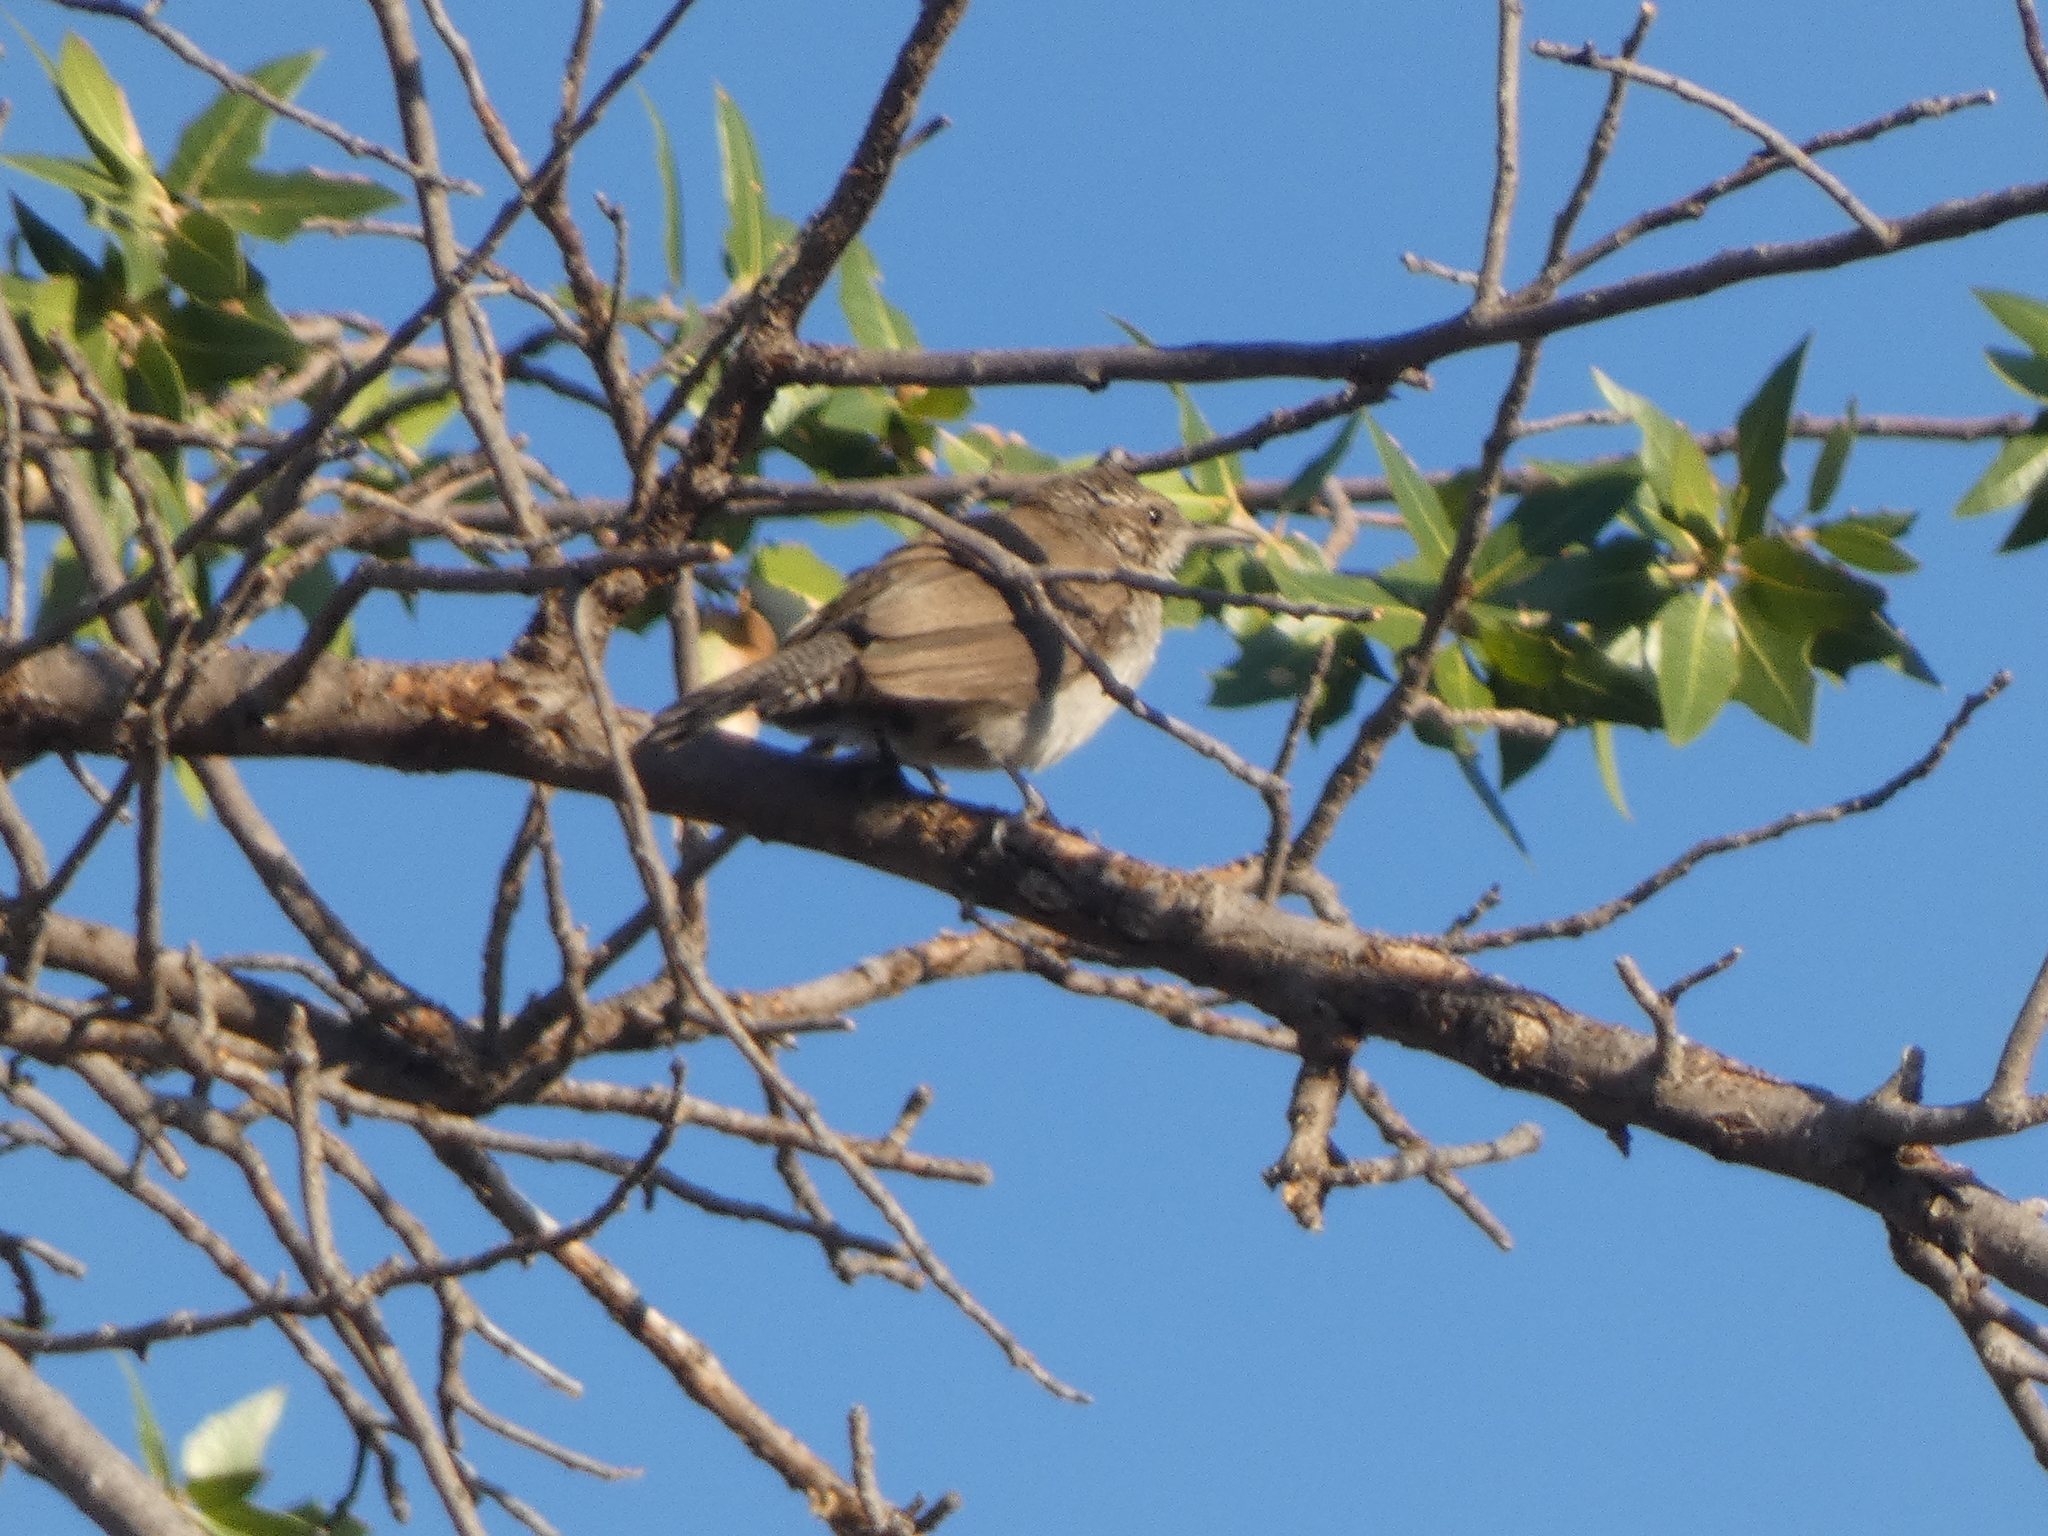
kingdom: Animalia
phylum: Chordata
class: Aves
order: Passeriformes
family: Troglodytidae
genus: Thryomanes
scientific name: Thryomanes bewickii
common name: Bewick's wren
